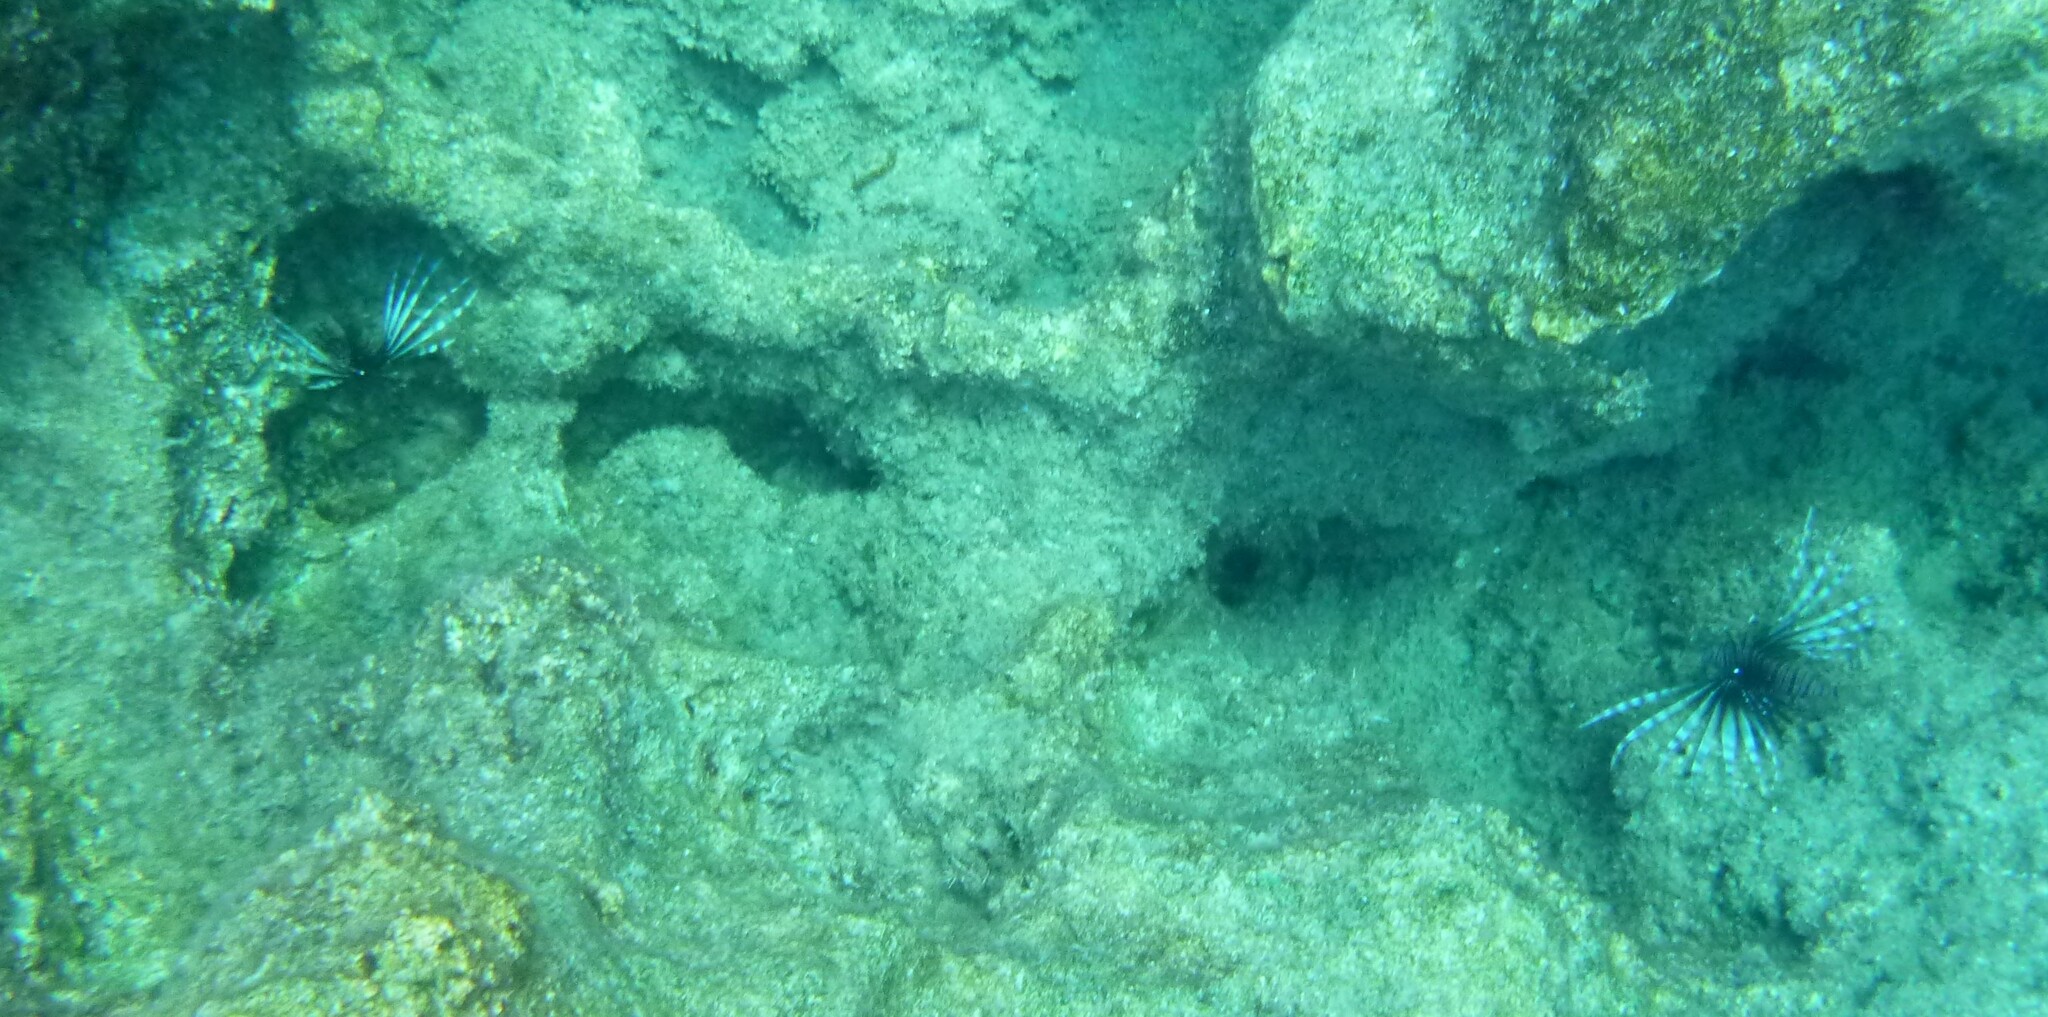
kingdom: Animalia
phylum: Chordata
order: Scorpaeniformes
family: Scorpaenidae
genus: Pterois
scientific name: Pterois miles
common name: Devil firefish
